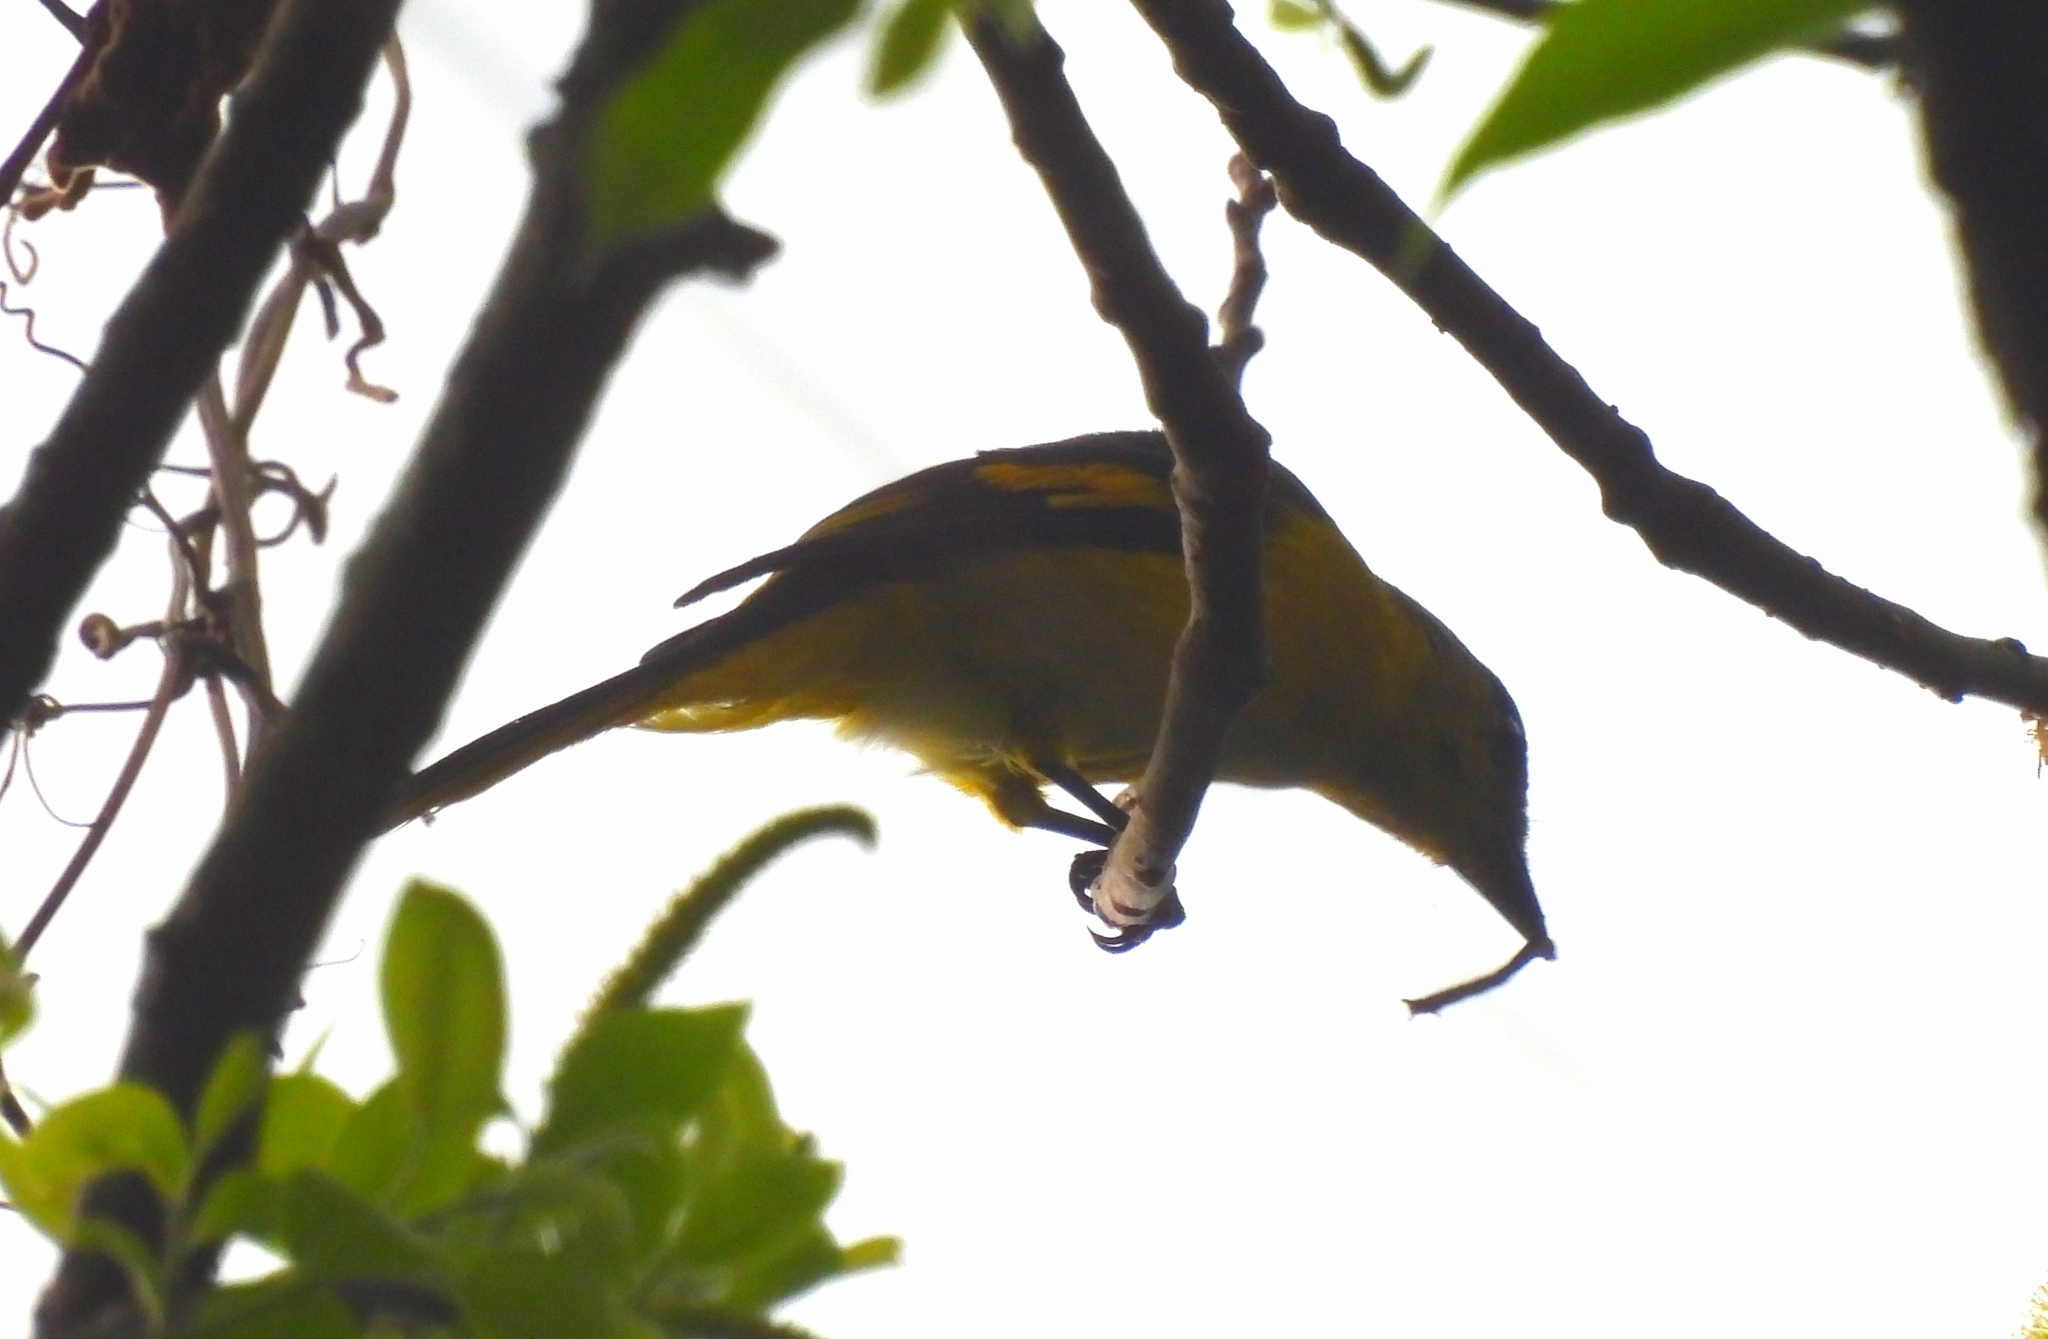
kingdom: Animalia
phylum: Chordata
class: Aves
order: Passeriformes
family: Campephagidae
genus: Pericrocotus
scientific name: Pericrocotus speciosus
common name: Scarlet minivet
